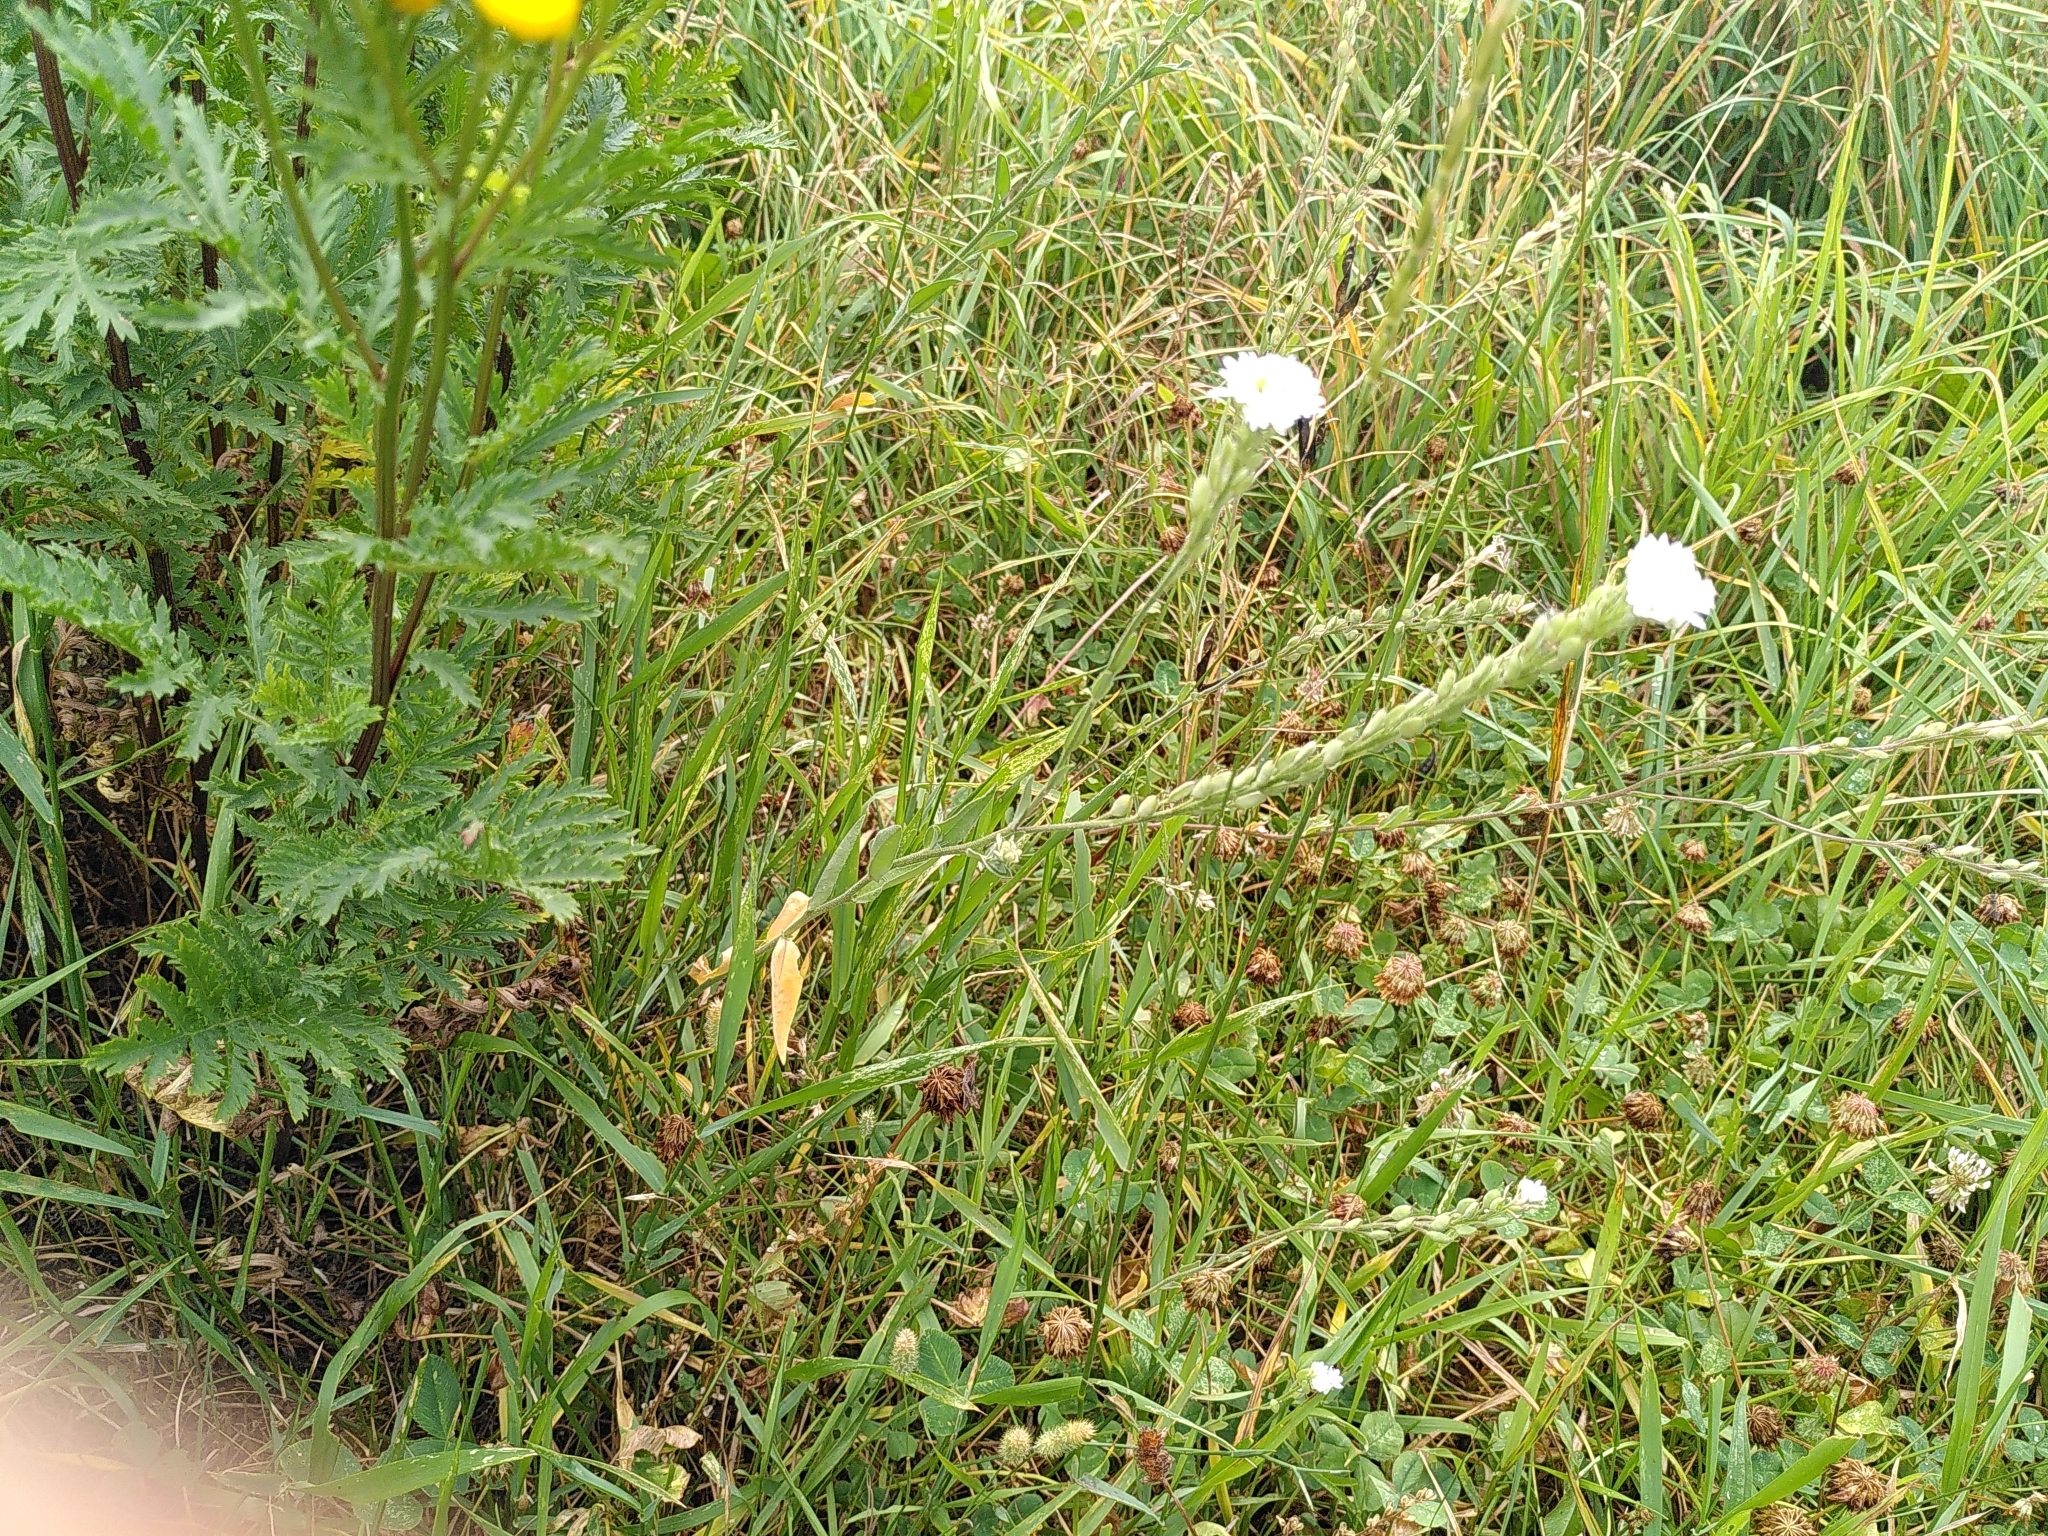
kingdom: Plantae
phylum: Tracheophyta
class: Magnoliopsida
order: Brassicales
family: Brassicaceae
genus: Berteroa
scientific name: Berteroa incana
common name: Hoary alison
